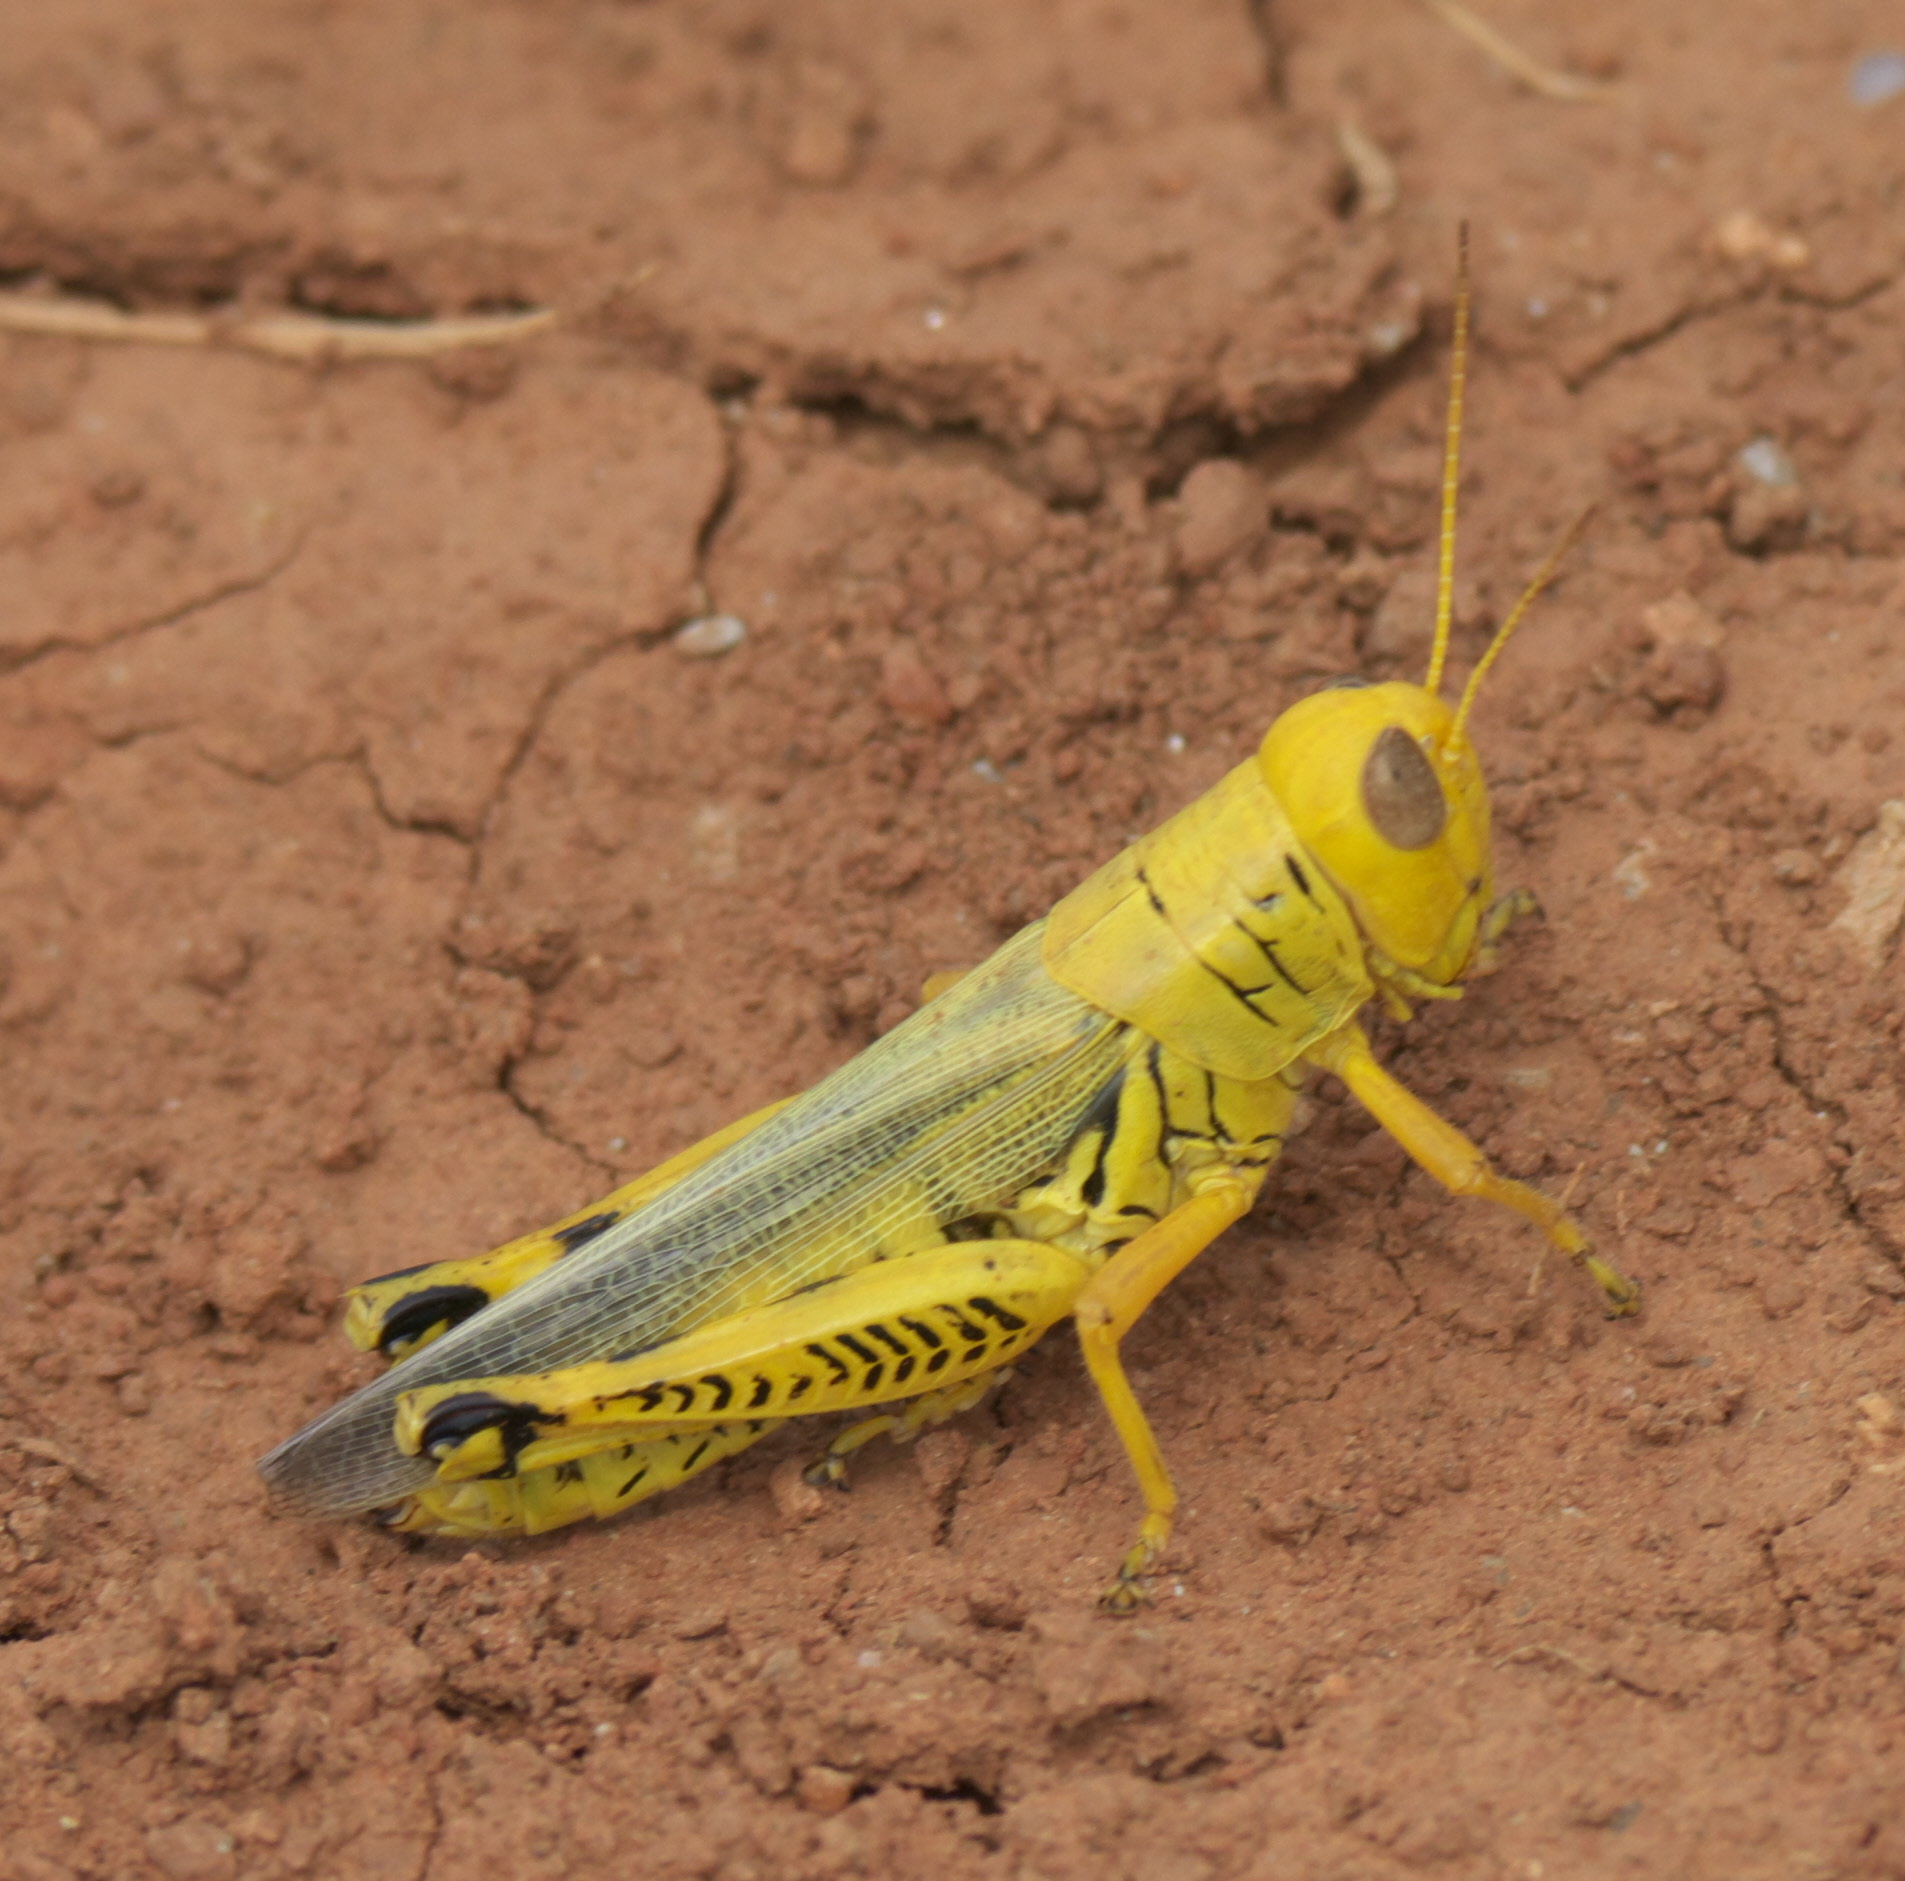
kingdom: Animalia
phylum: Arthropoda
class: Insecta
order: Orthoptera
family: Acrididae
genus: Melanoplus
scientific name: Melanoplus differentialis
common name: Differential grasshopper
